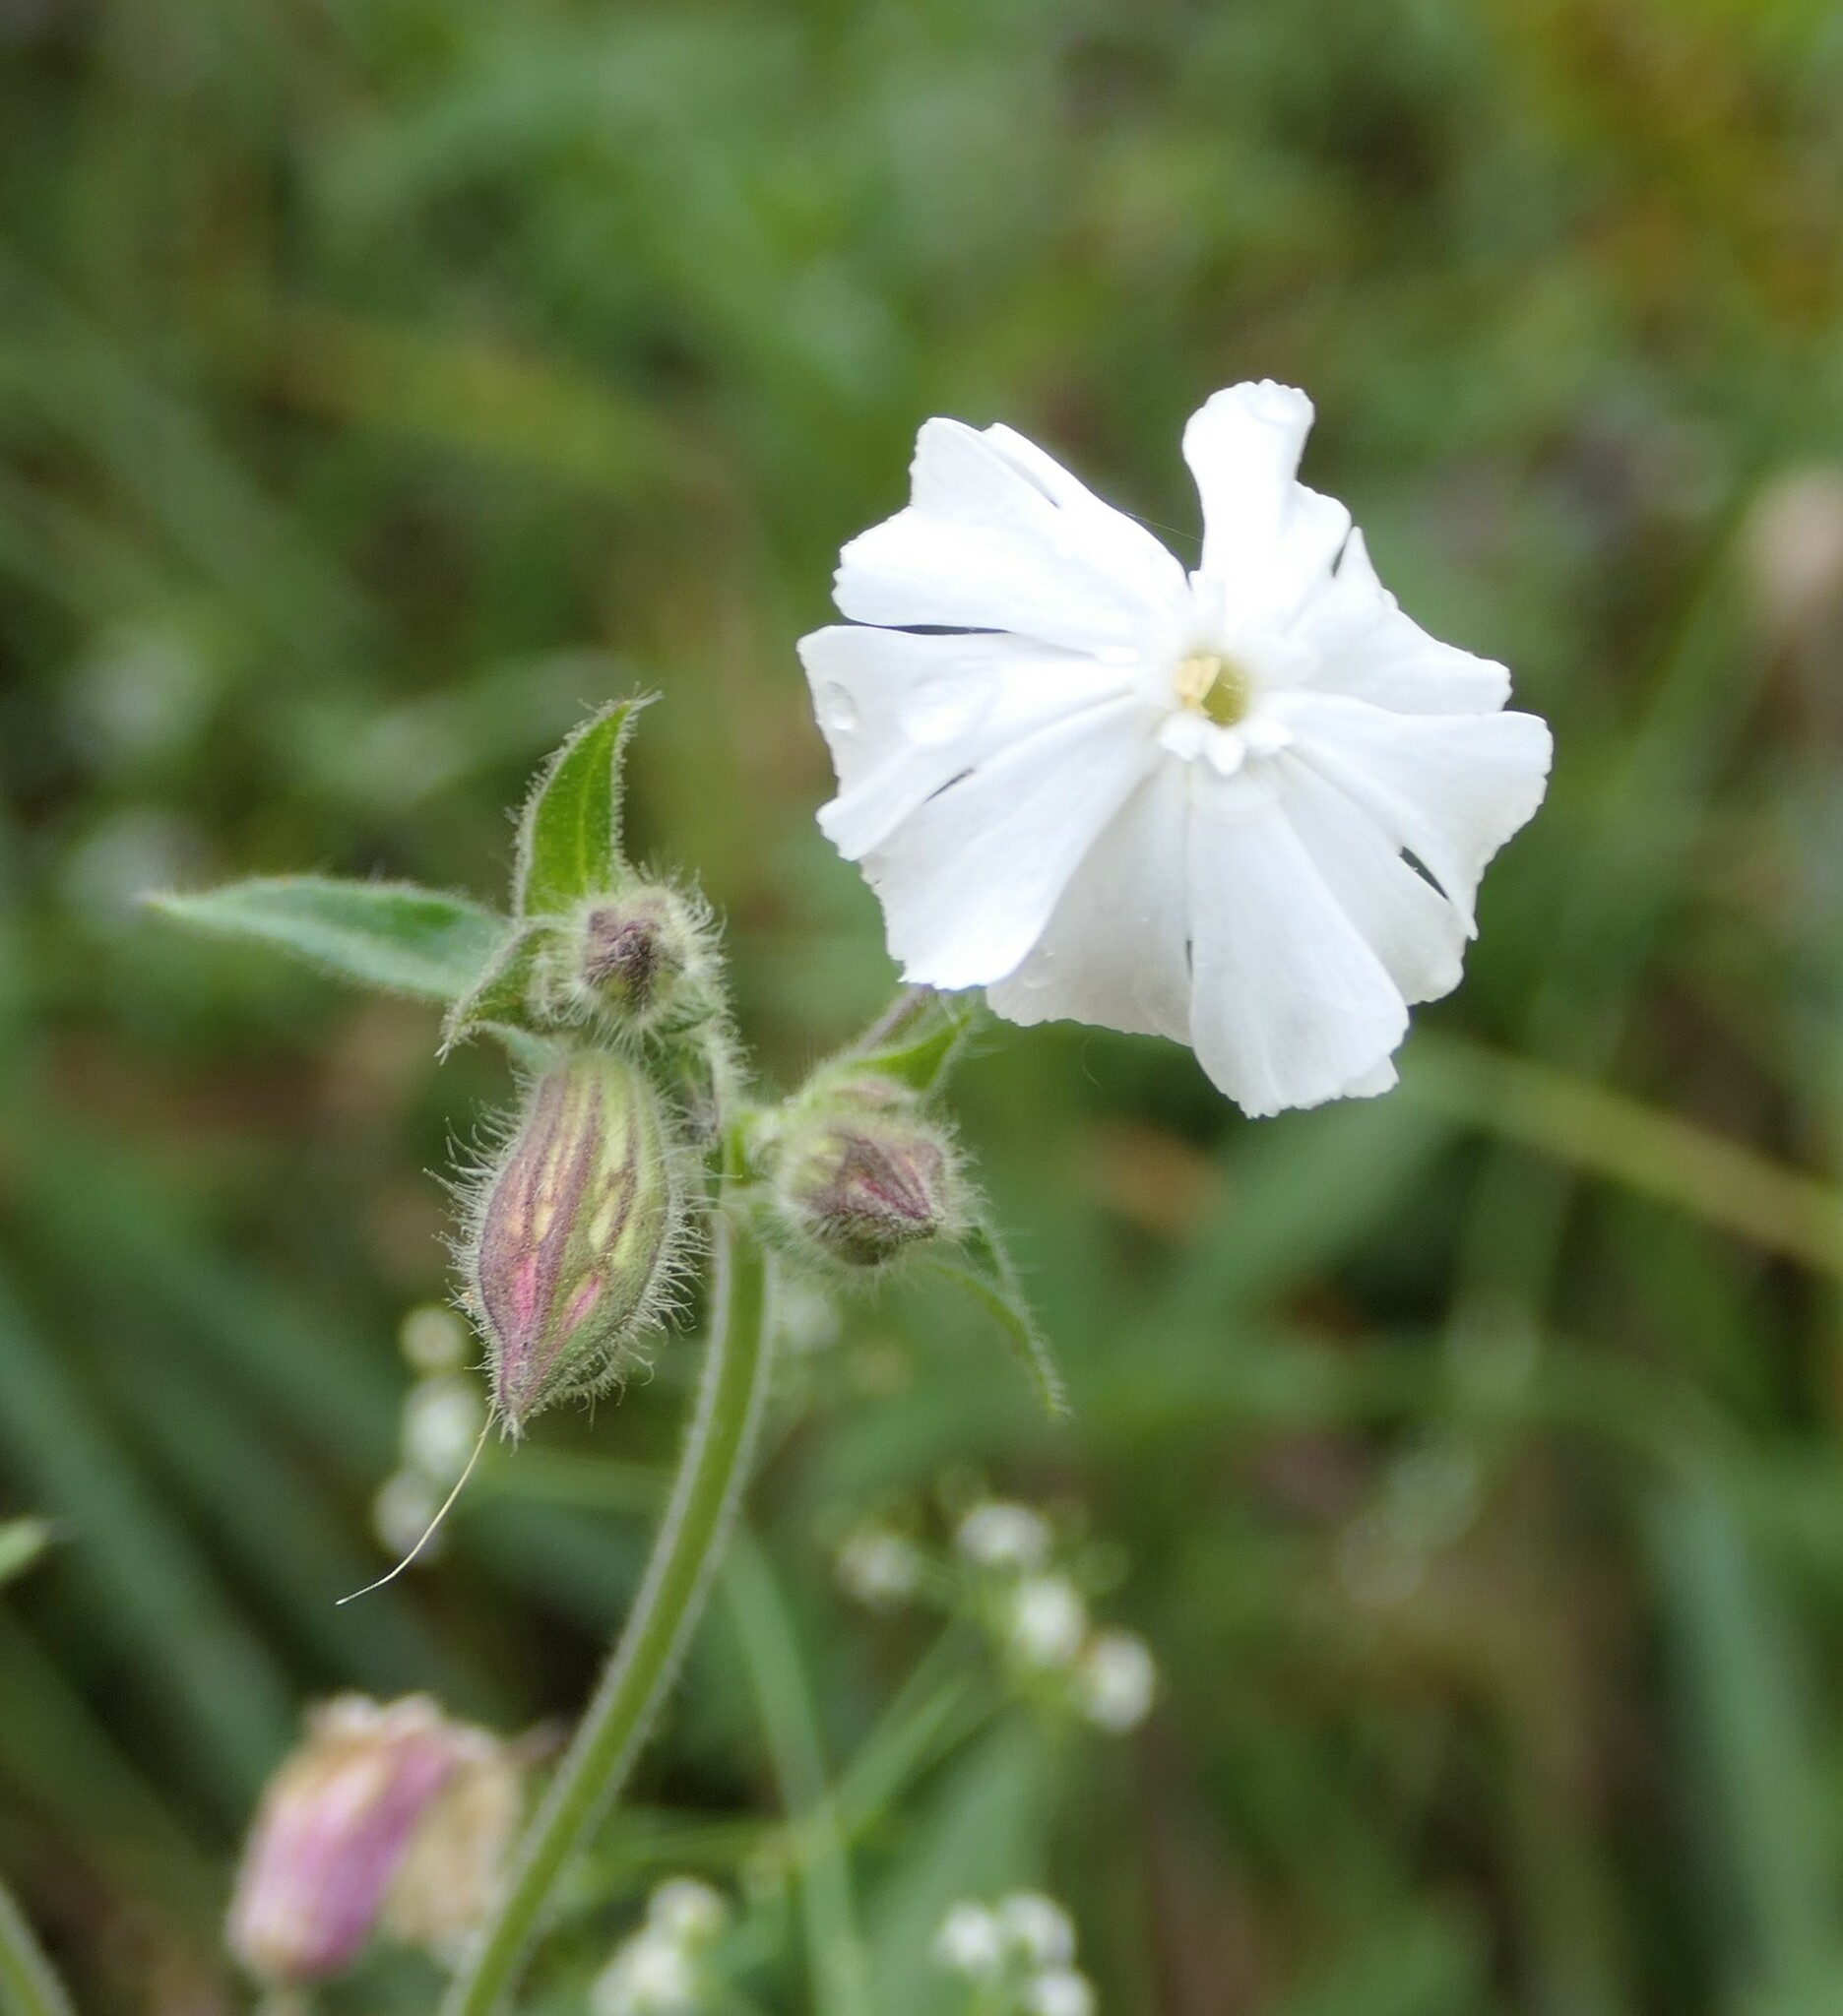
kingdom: Plantae
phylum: Tracheophyta
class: Magnoliopsida
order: Caryophyllales
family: Caryophyllaceae
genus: Silene
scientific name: Silene latifolia
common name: White campion
